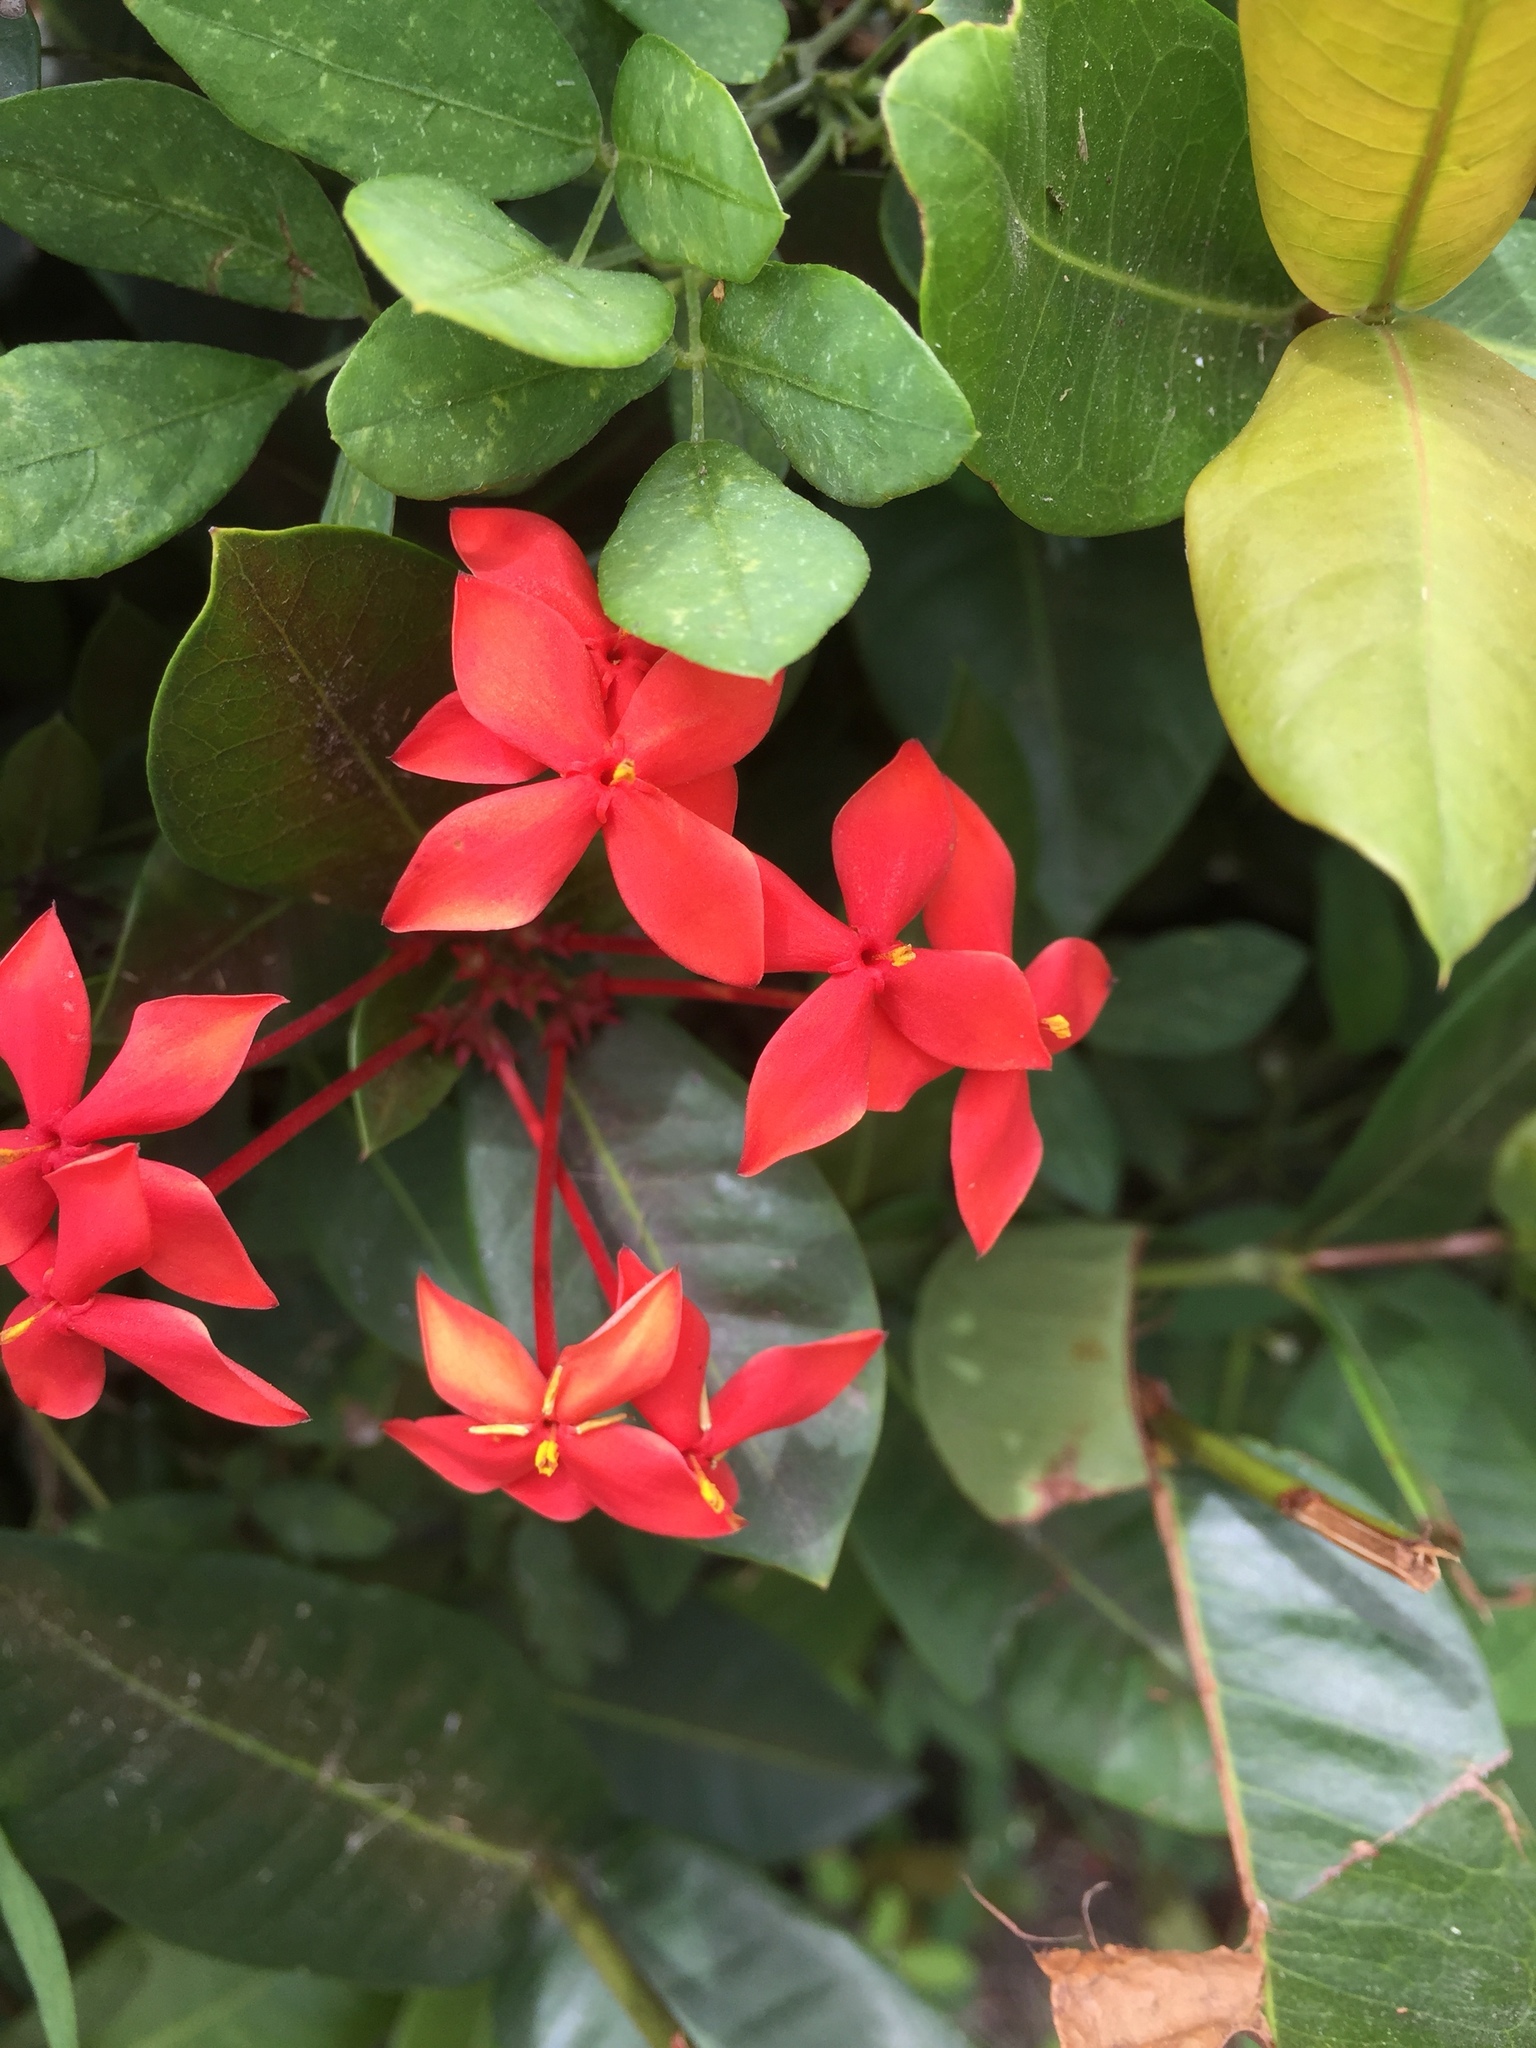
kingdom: Plantae
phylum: Tracheophyta
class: Magnoliopsida
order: Gentianales
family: Rubiaceae
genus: Ixora
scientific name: Ixora coccinea
